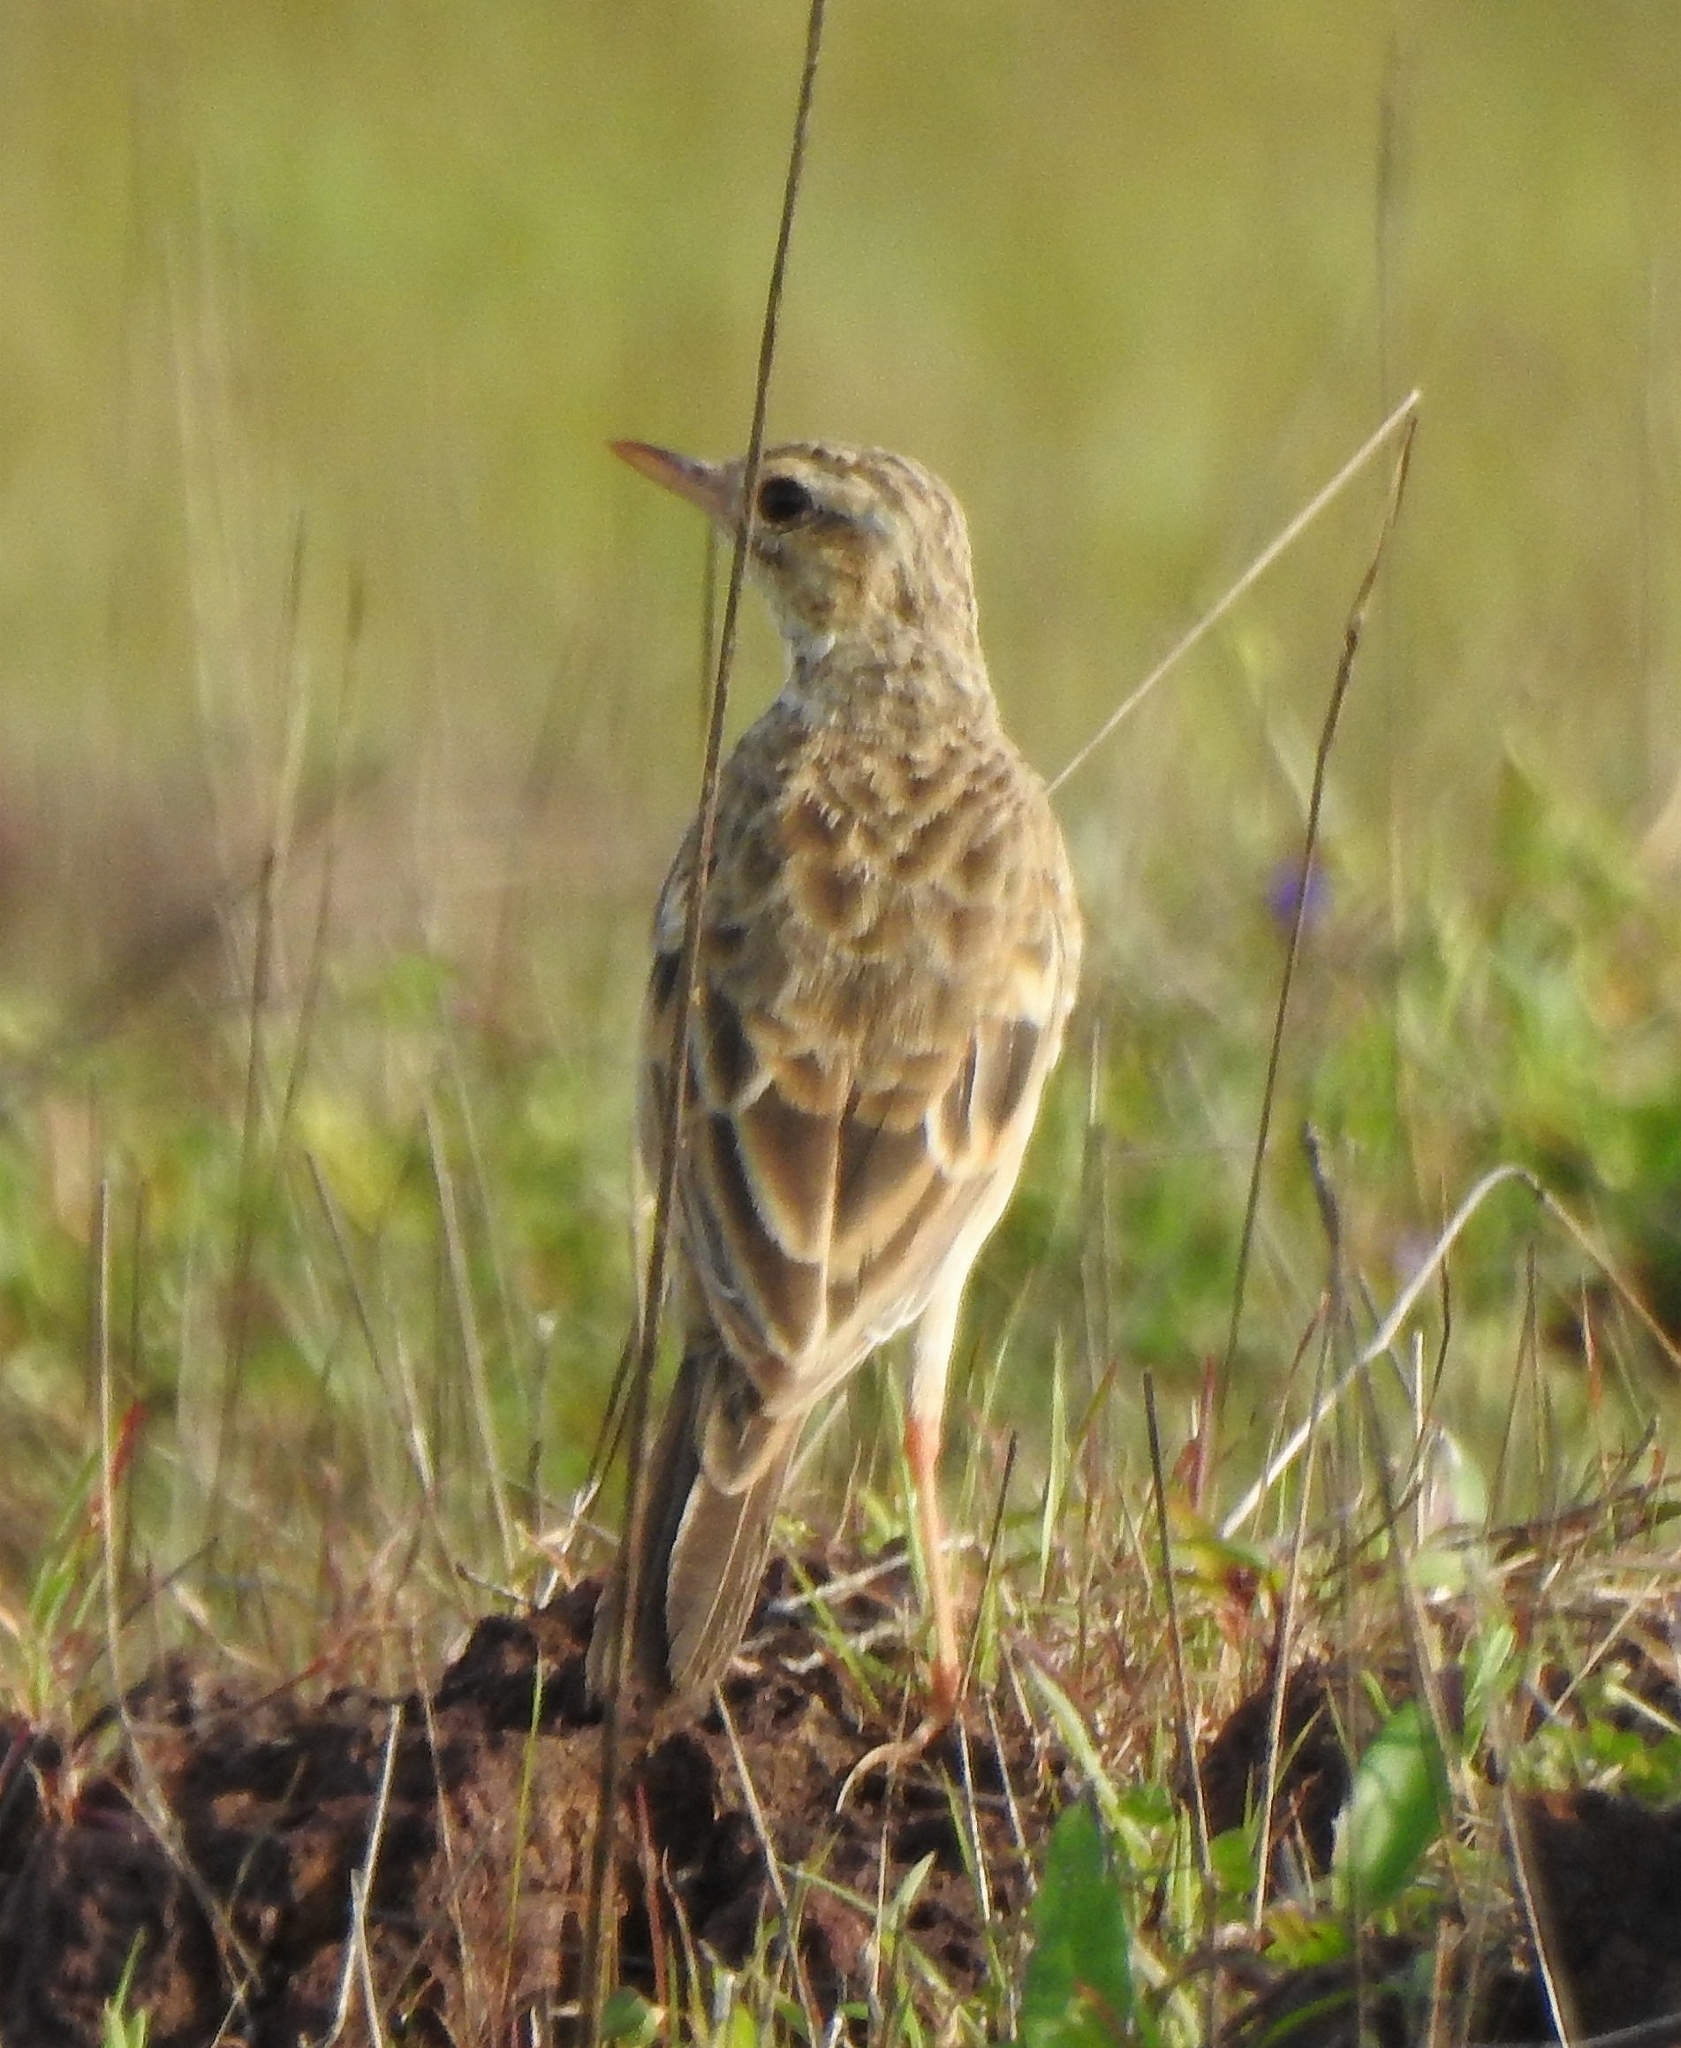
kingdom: Animalia
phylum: Chordata
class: Aves
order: Passeriformes
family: Motacillidae
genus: Anthus
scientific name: Anthus rufulus
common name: Paddyfield pipit
